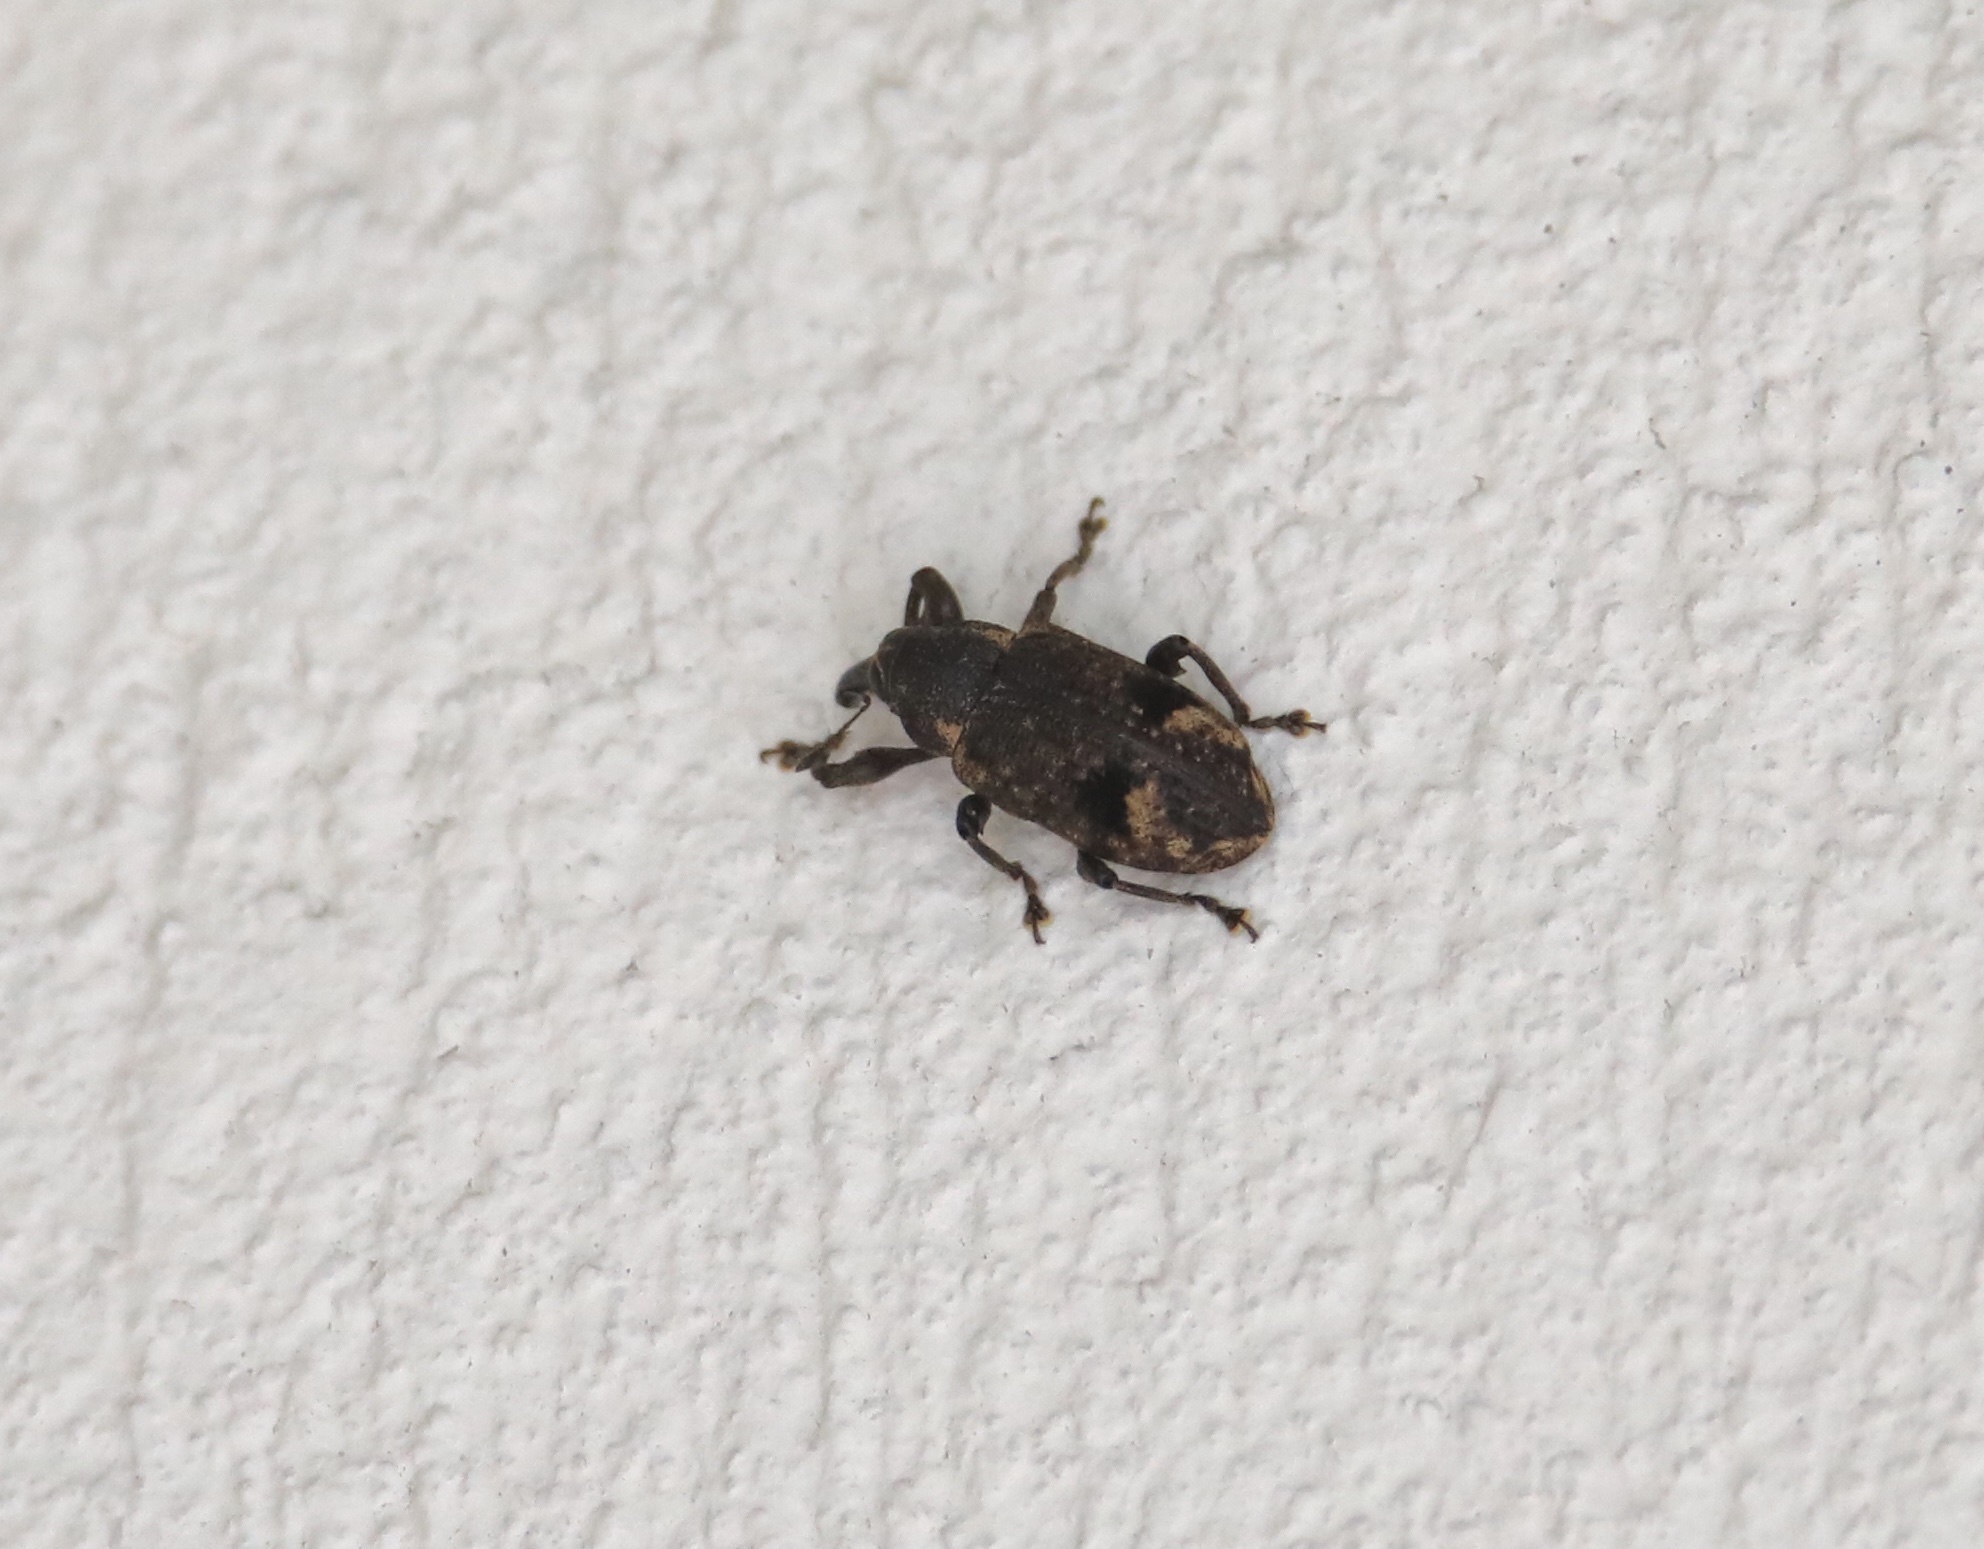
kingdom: Animalia
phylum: Arthropoda
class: Insecta
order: Coleoptera
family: Curculionidae
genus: Hilipus
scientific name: Hilipus latipennis
